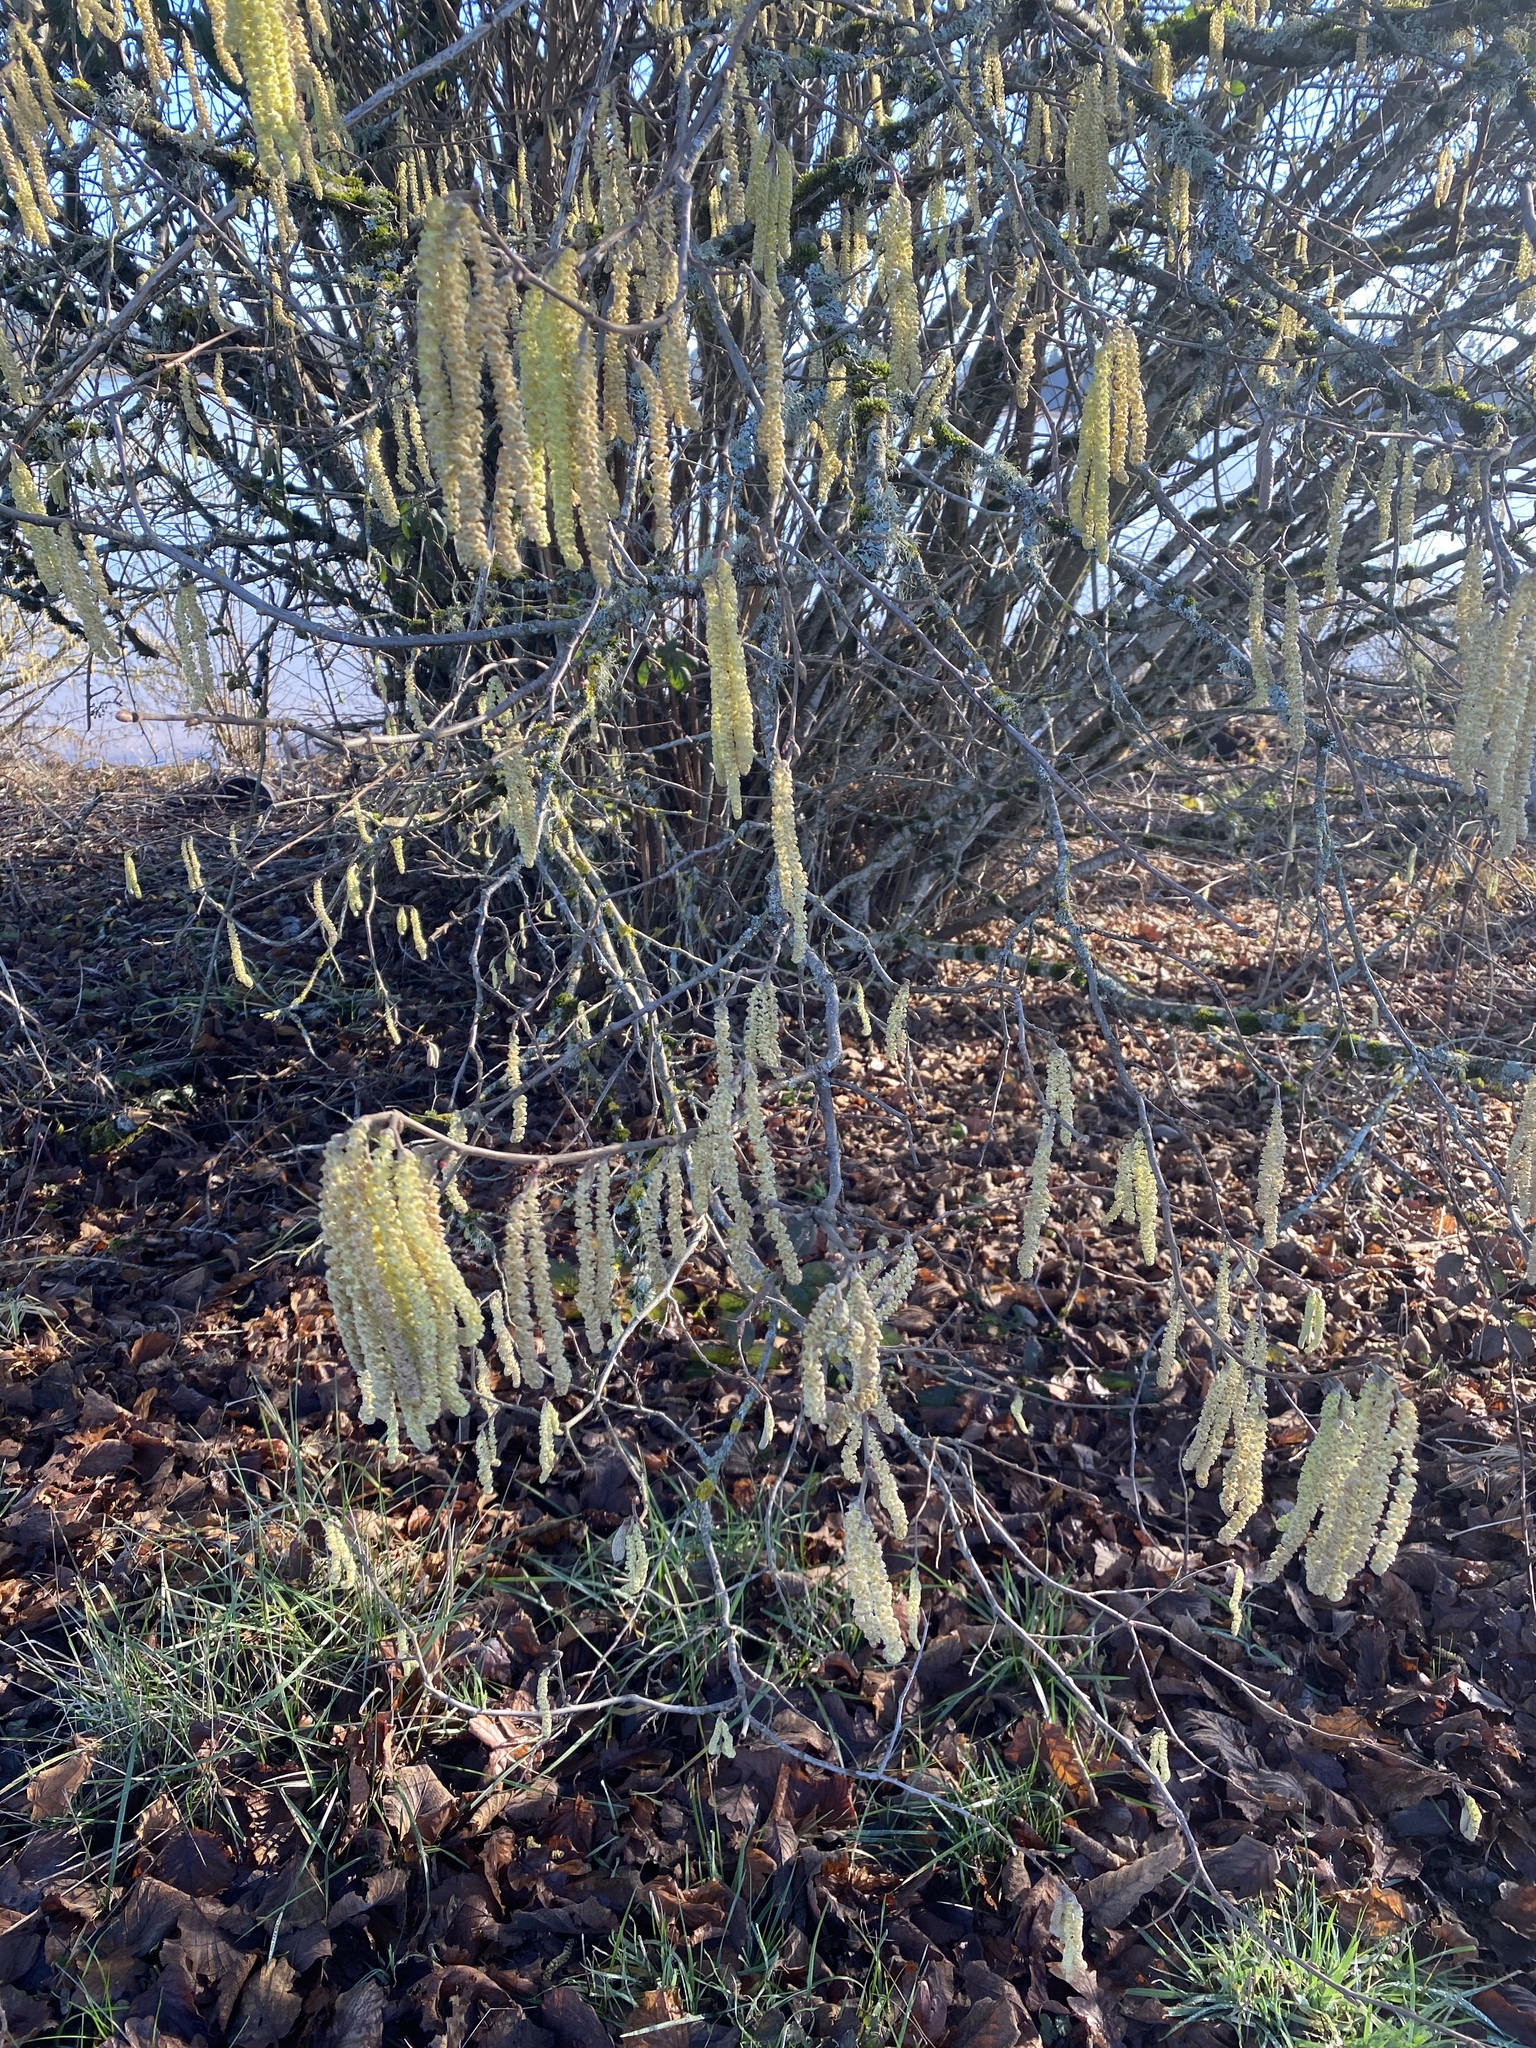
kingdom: Plantae
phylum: Tracheophyta
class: Magnoliopsida
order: Fagales
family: Betulaceae
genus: Corylus
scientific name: Corylus avellana
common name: European hazel
